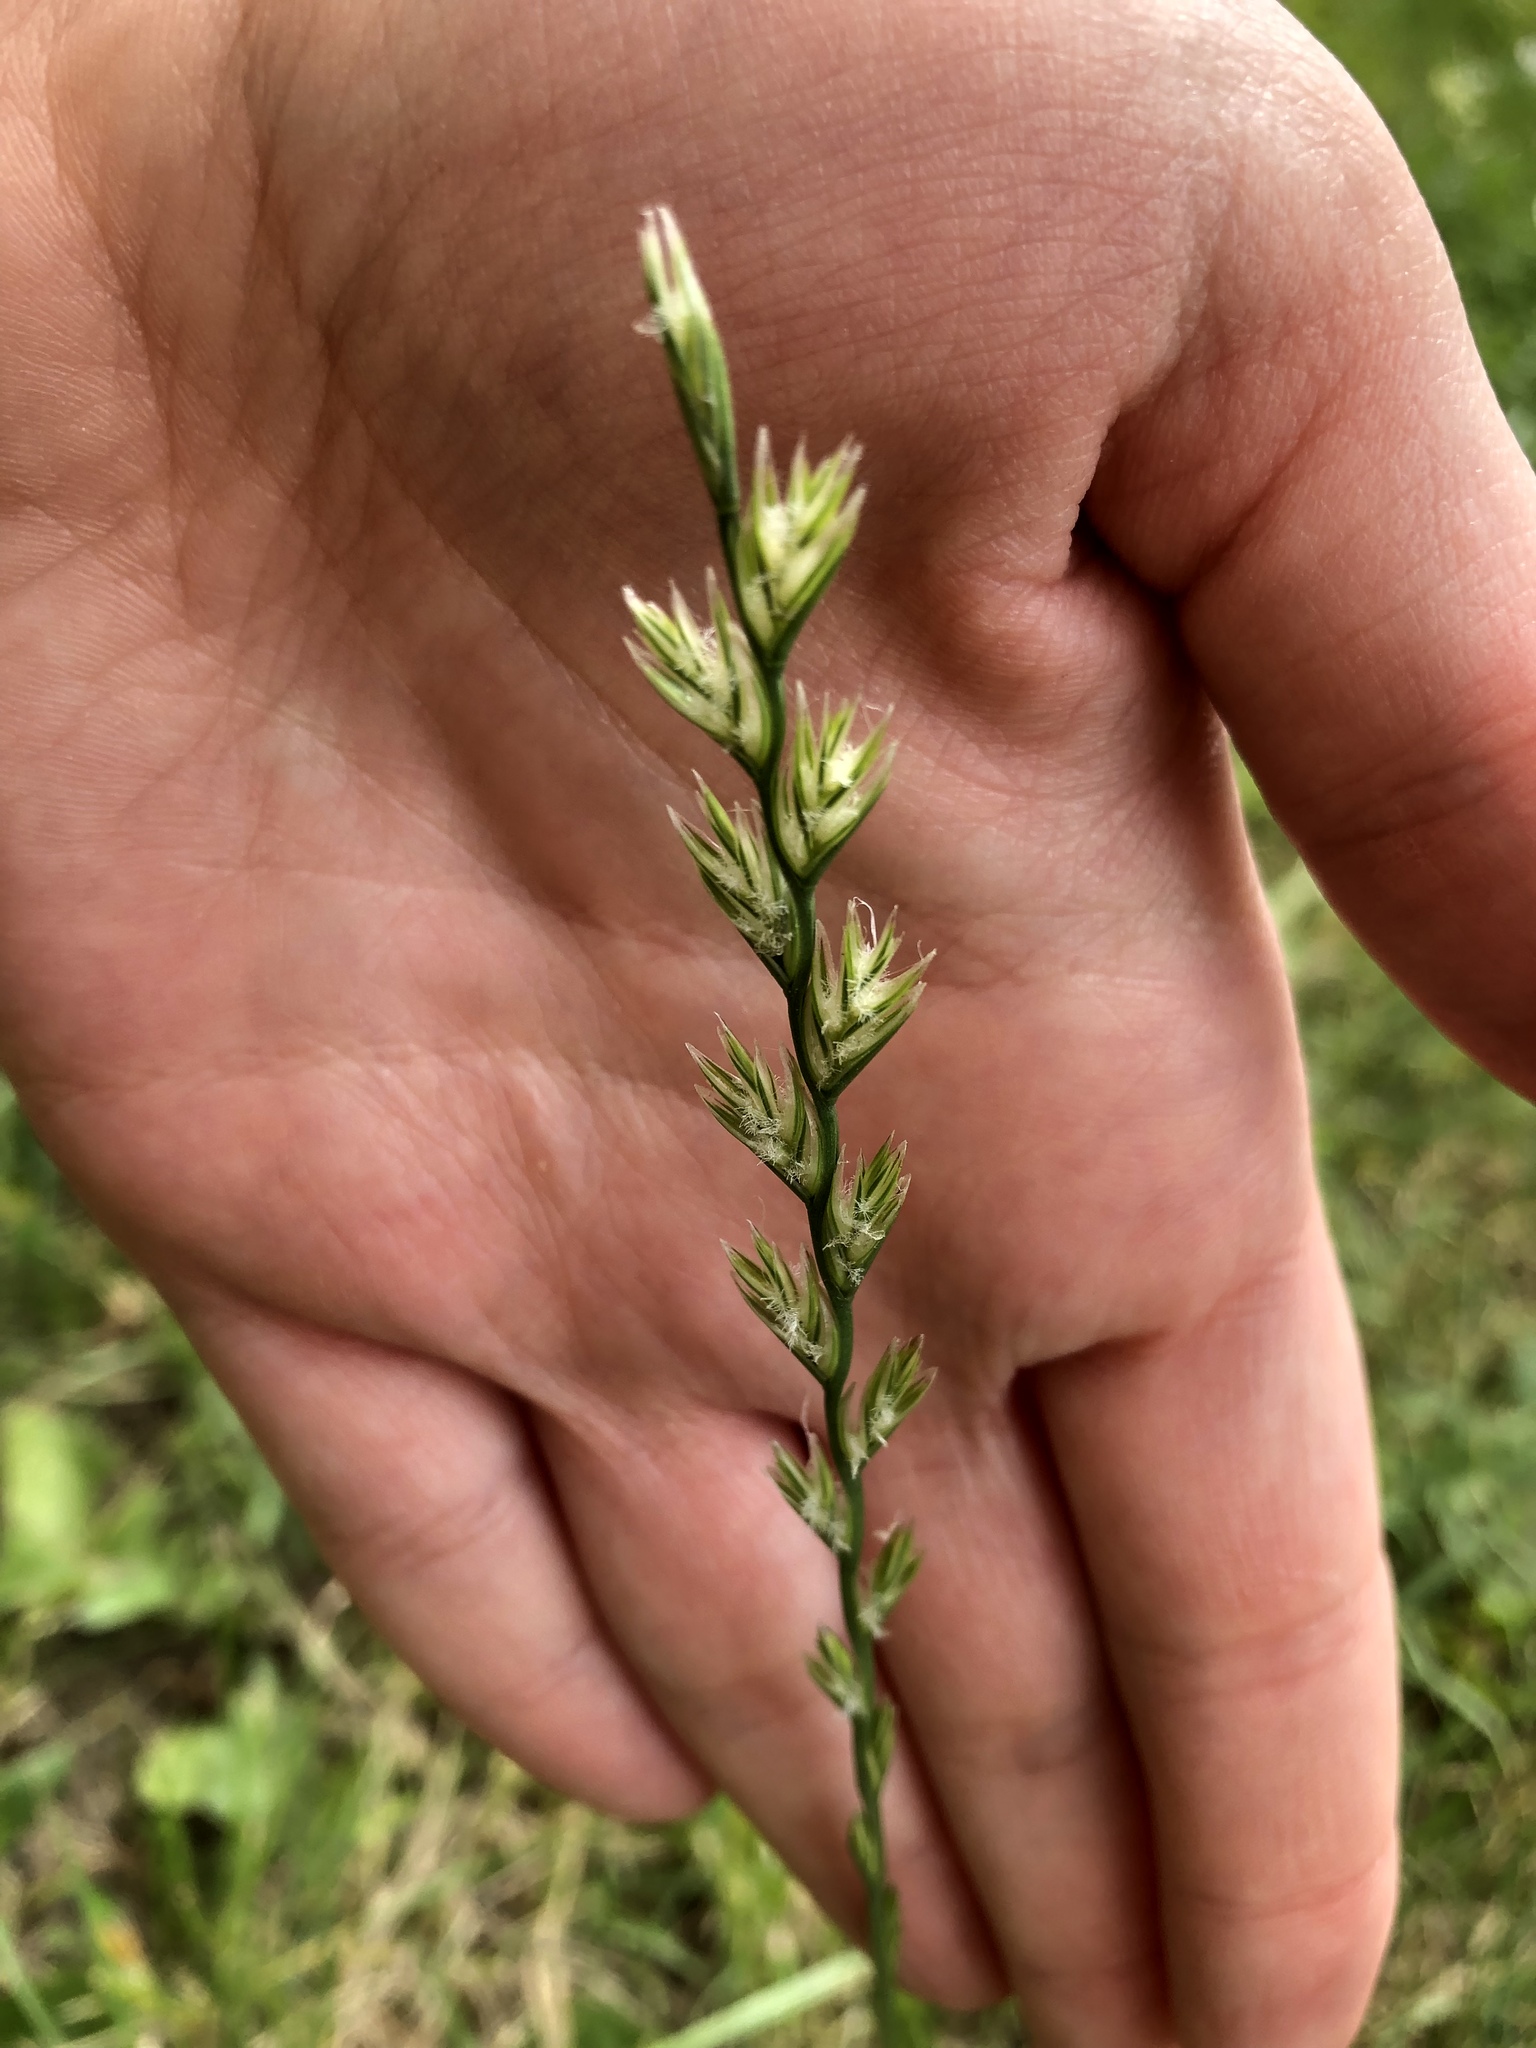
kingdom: Plantae
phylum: Tracheophyta
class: Liliopsida
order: Poales
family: Poaceae
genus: Lolium
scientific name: Lolium perenne
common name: Perennial ryegrass
